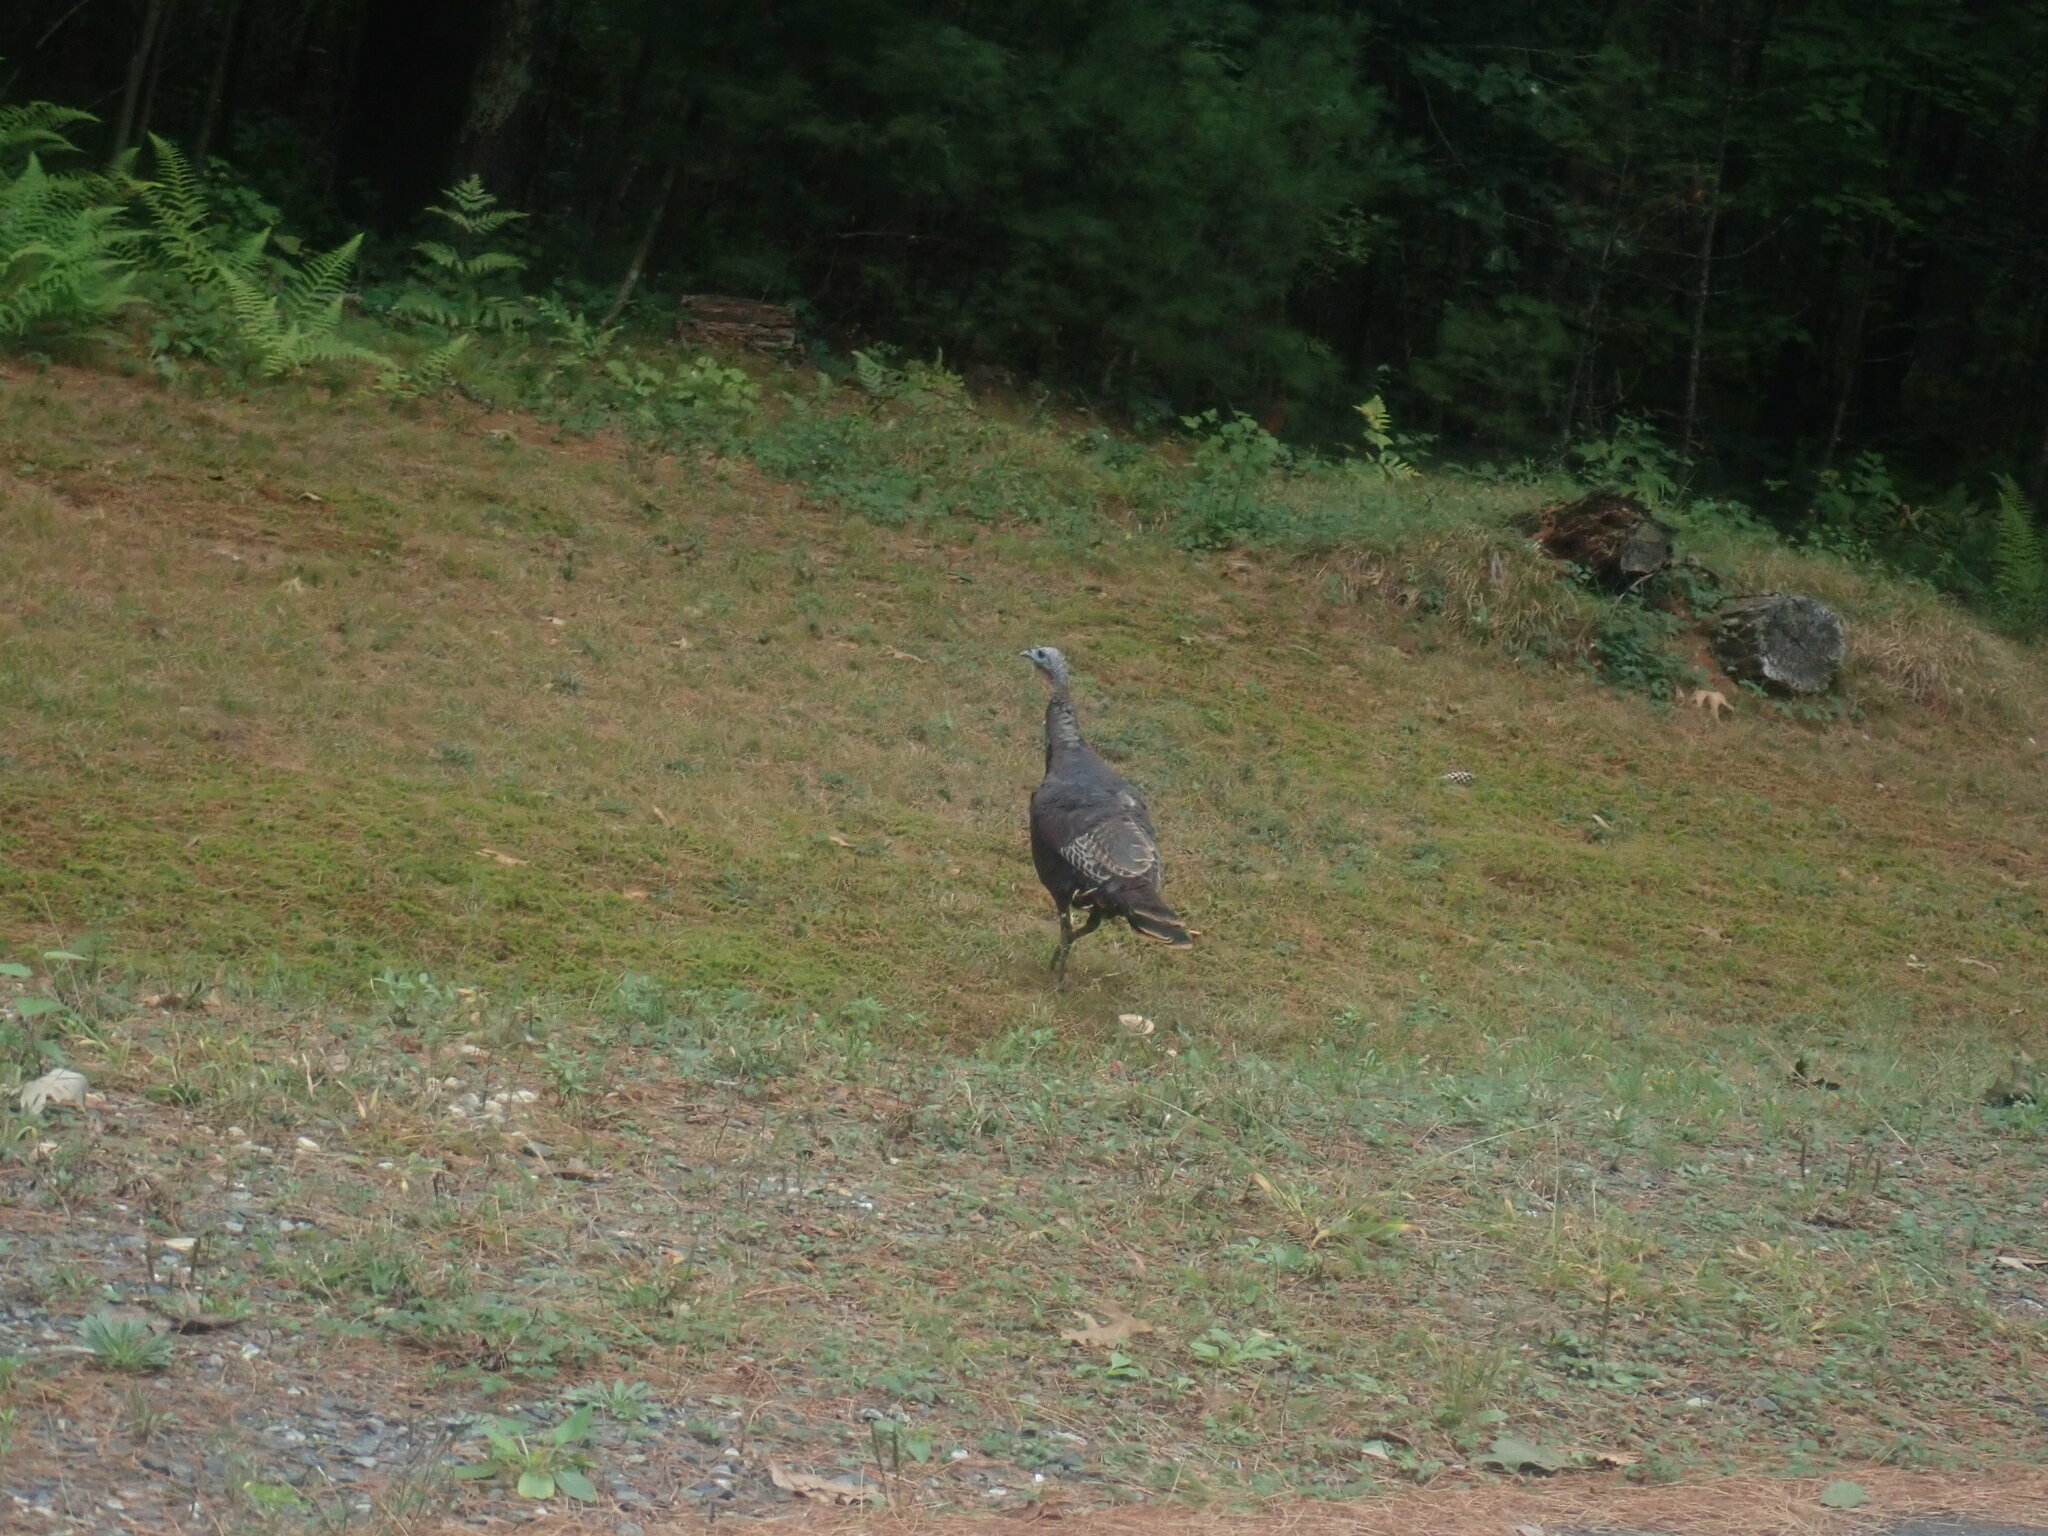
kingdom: Animalia
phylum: Chordata
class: Aves
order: Galliformes
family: Phasianidae
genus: Meleagris
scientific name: Meleagris gallopavo
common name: Wild turkey
